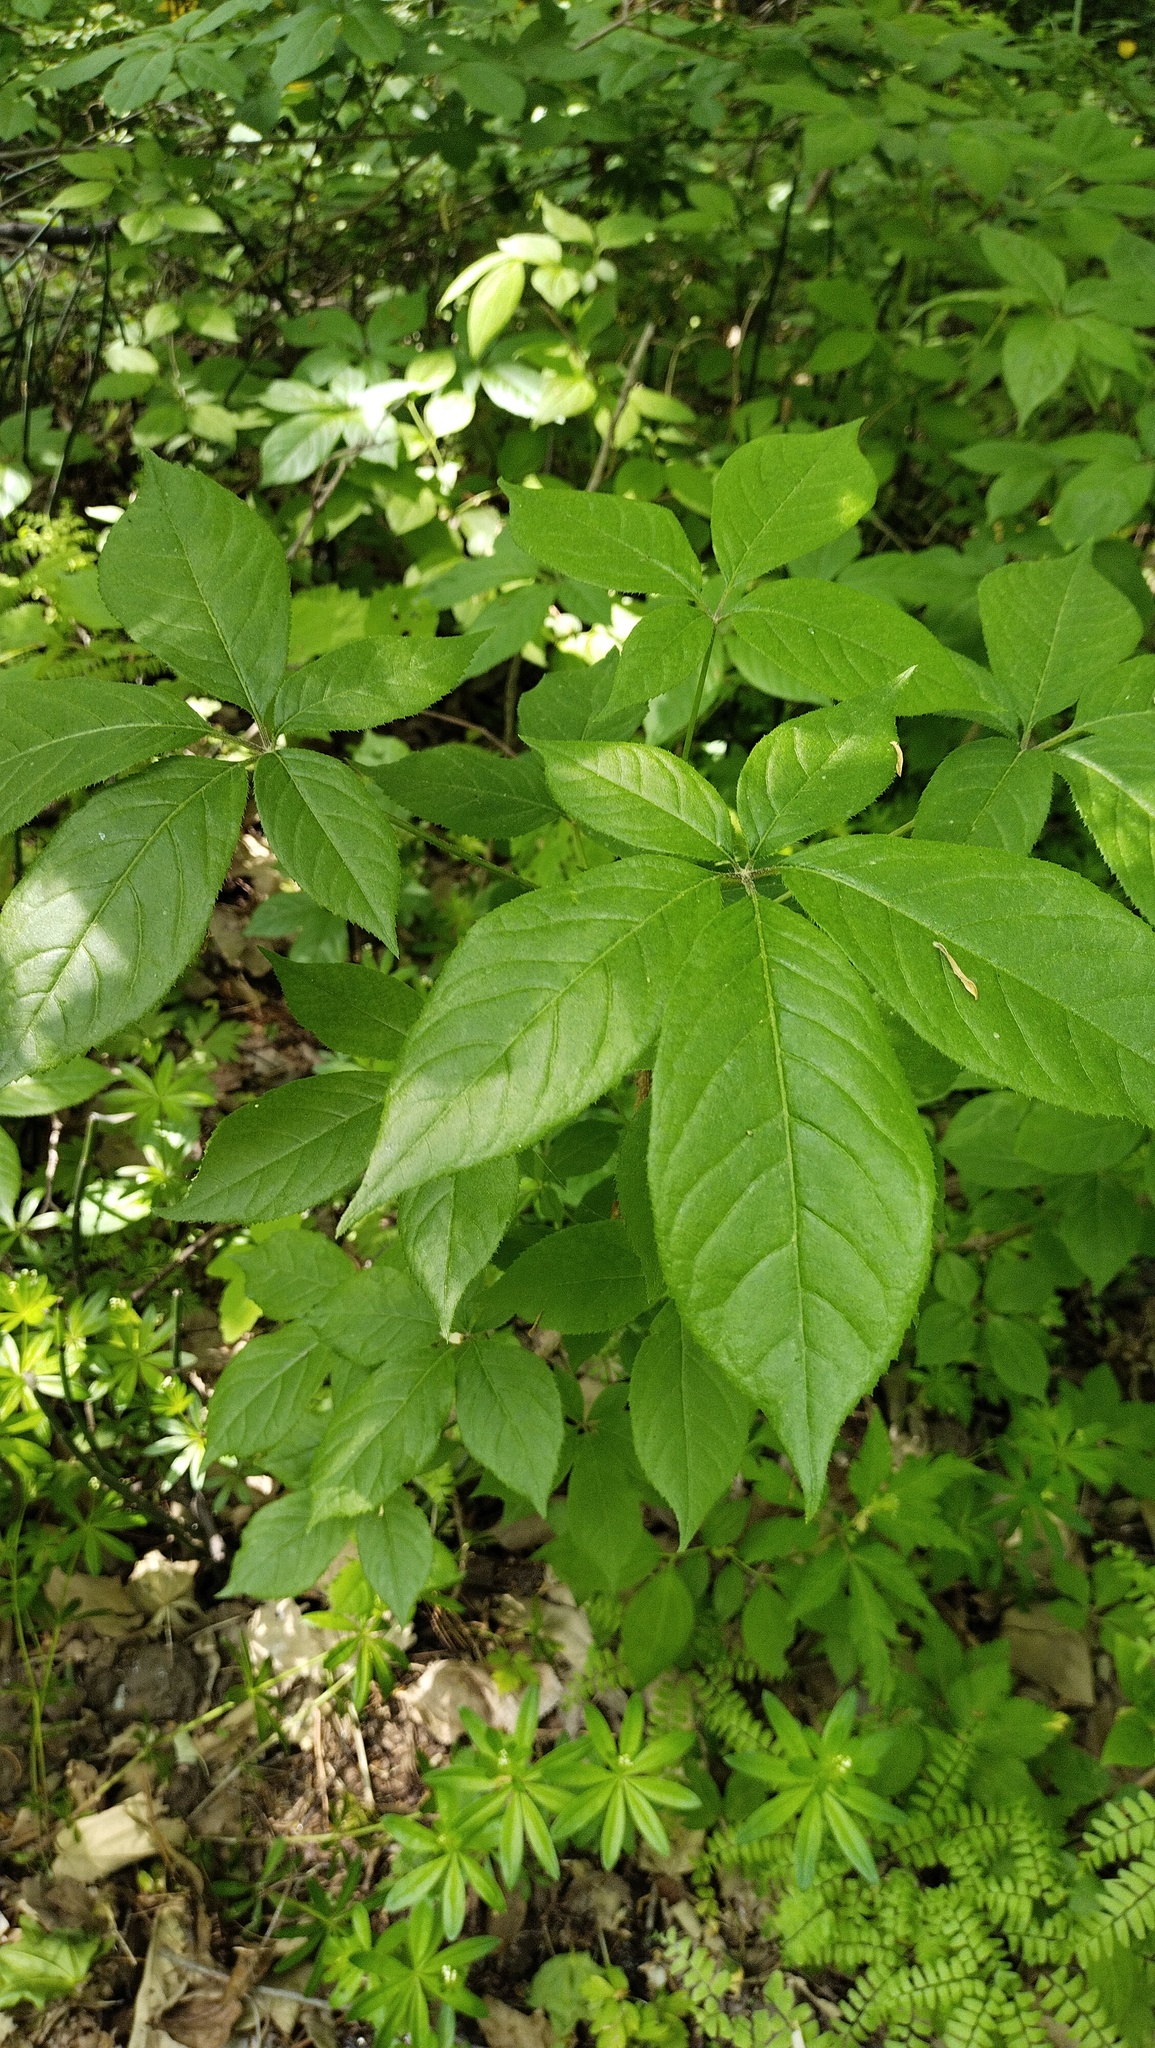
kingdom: Plantae
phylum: Tracheophyta
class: Magnoliopsida
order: Apiales
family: Araliaceae
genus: Eleutherococcus
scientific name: Eleutherococcus senticosus
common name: Siberian-ginseng
